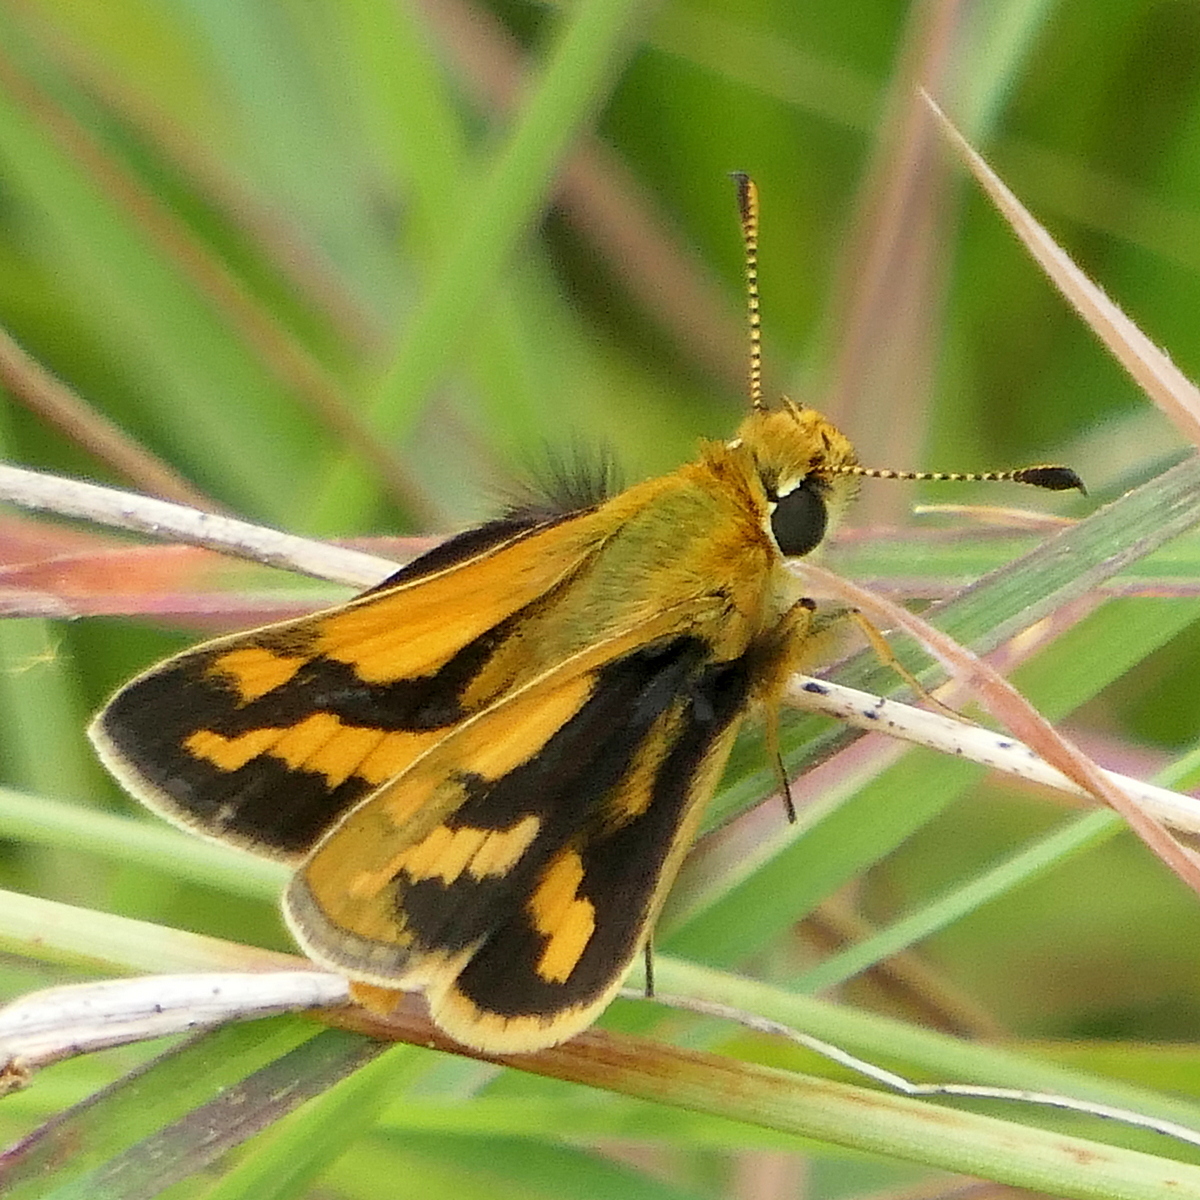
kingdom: Animalia
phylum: Arthropoda
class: Insecta
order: Lepidoptera
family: Hesperiidae
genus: Ocybadistes
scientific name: Ocybadistes walkeri
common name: Yellow-banded dart
